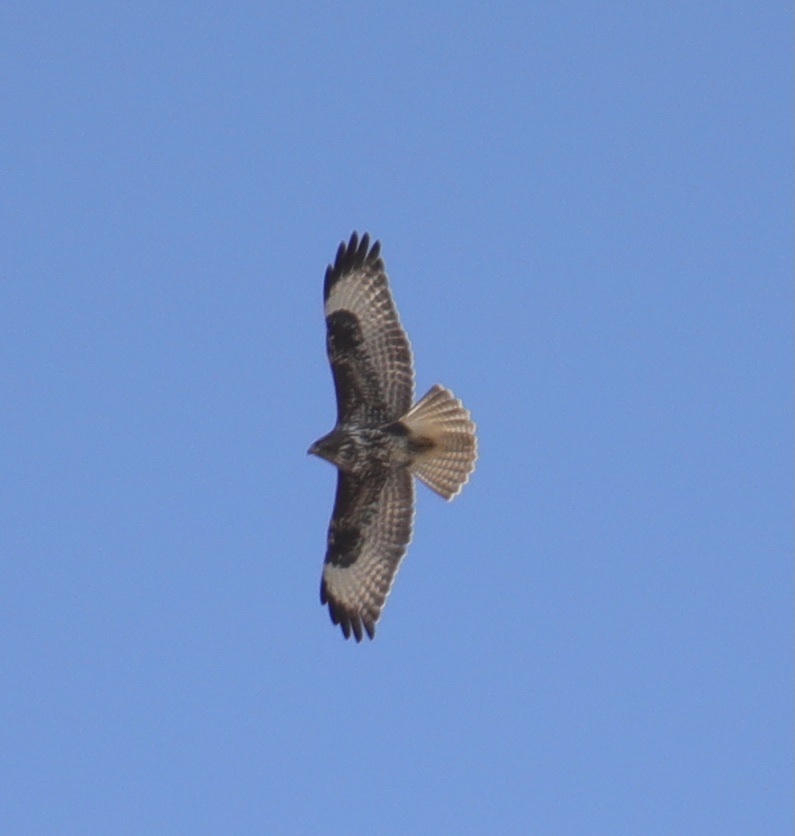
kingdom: Animalia
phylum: Chordata
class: Aves
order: Accipitriformes
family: Accipitridae
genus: Buteo
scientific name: Buteo buteo
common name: Common buzzard
